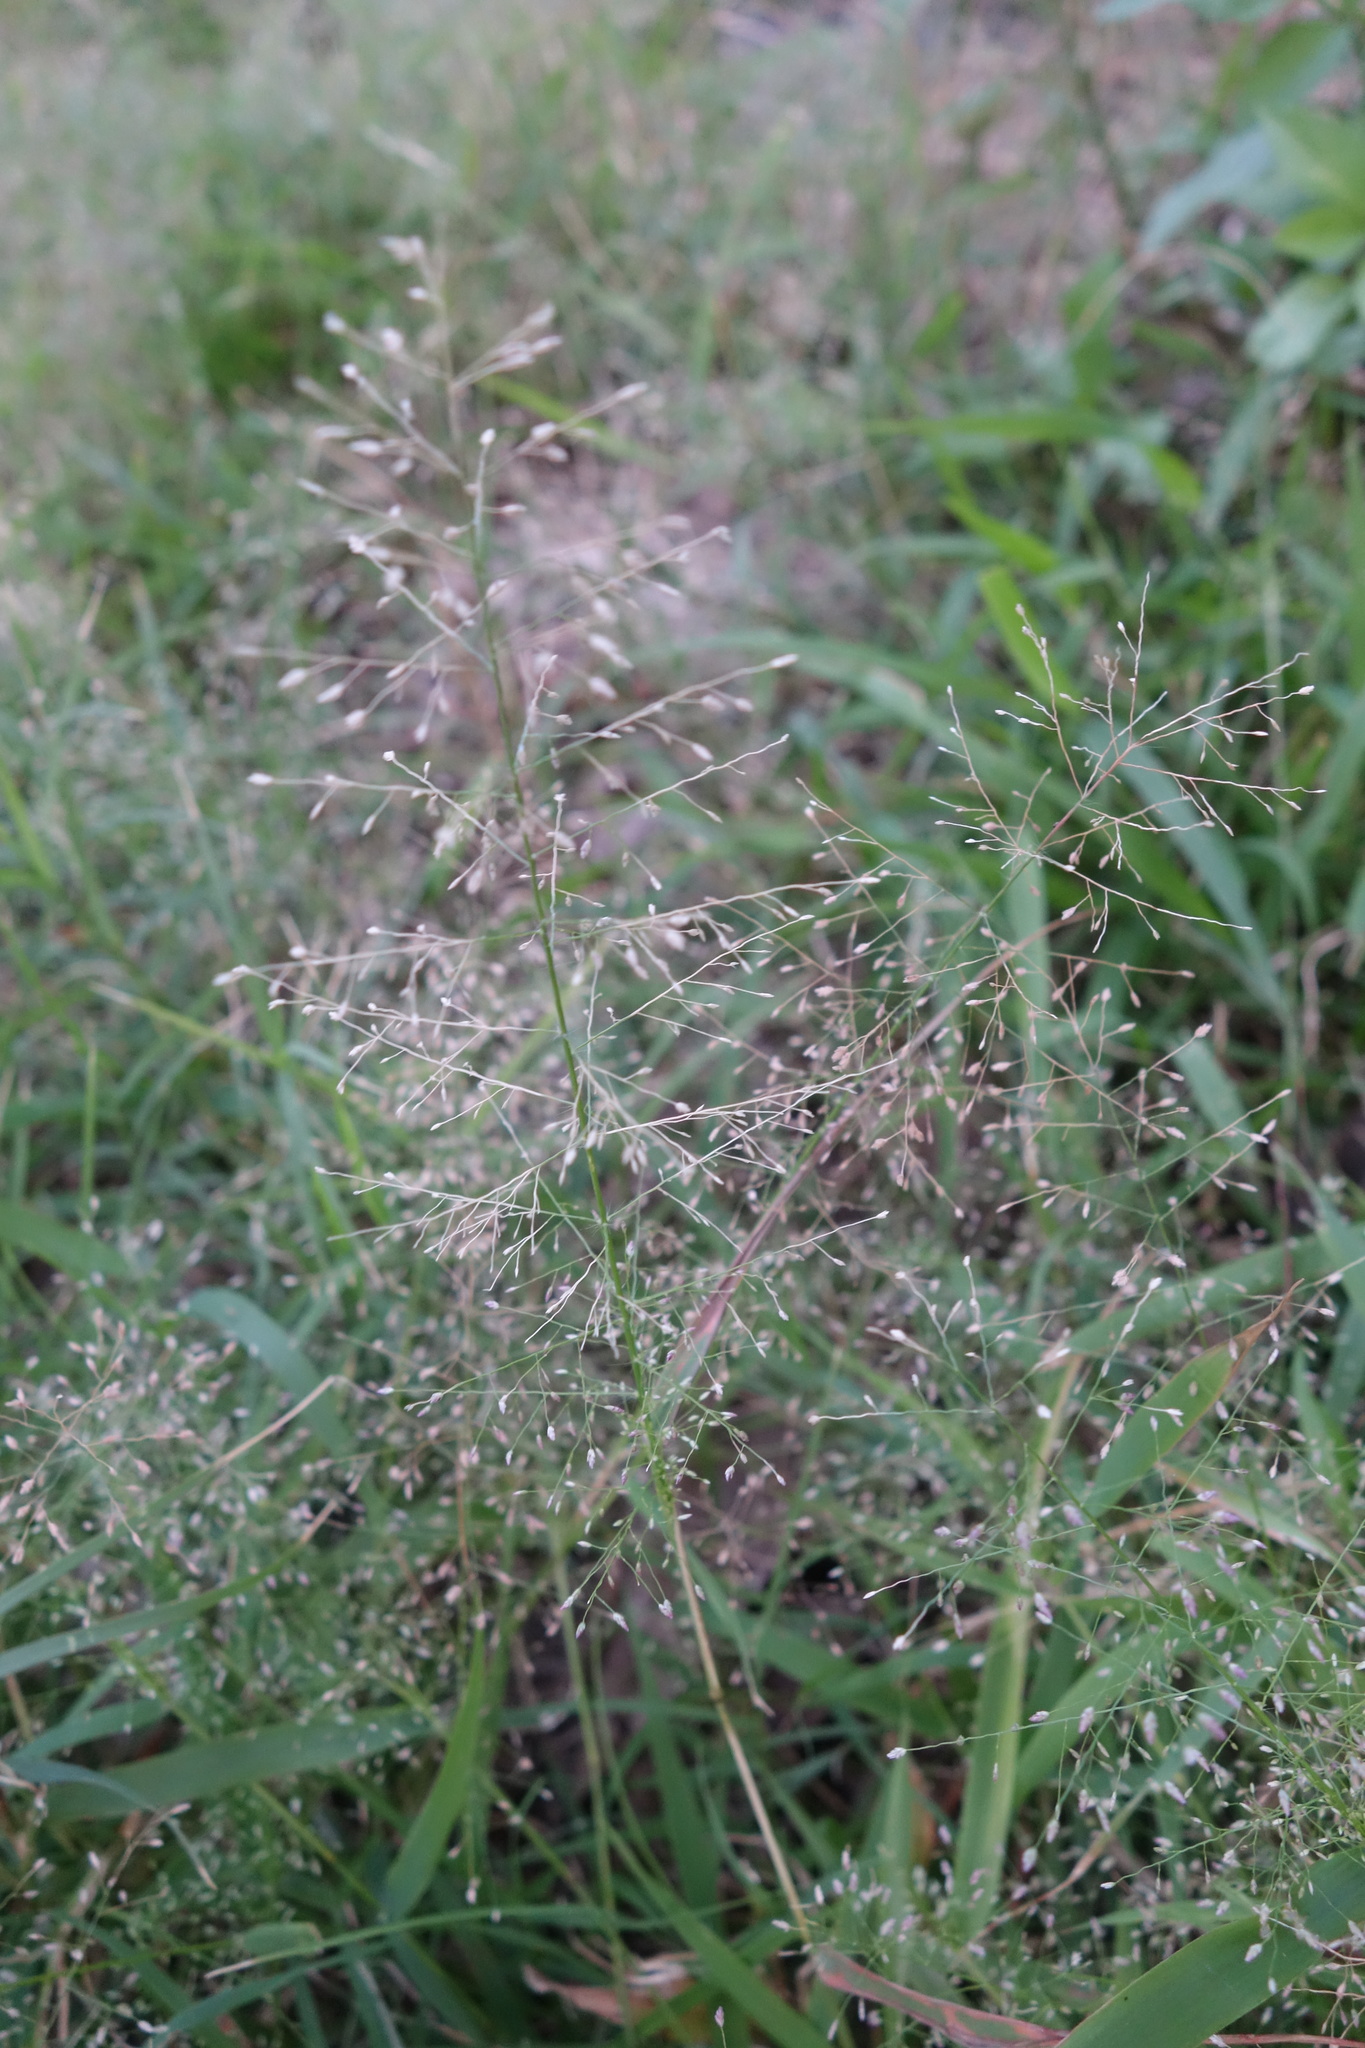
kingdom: Plantae
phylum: Tracheophyta
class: Liliopsida
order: Poales
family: Poaceae
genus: Eragrostis
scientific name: Eragrostis tenella
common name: Japanese lovegrass
